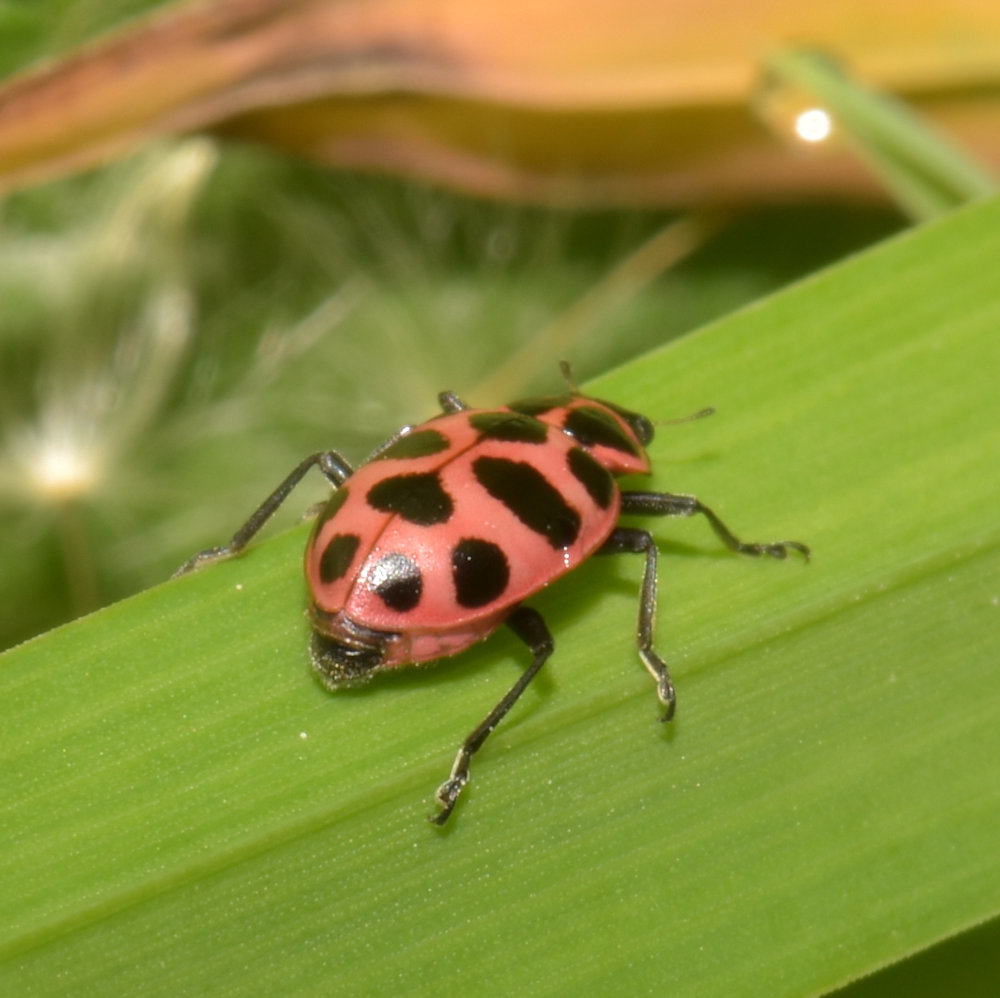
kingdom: Animalia
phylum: Arthropoda
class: Insecta
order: Coleoptera
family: Coccinellidae
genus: Coleomegilla
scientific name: Coleomegilla maculata
